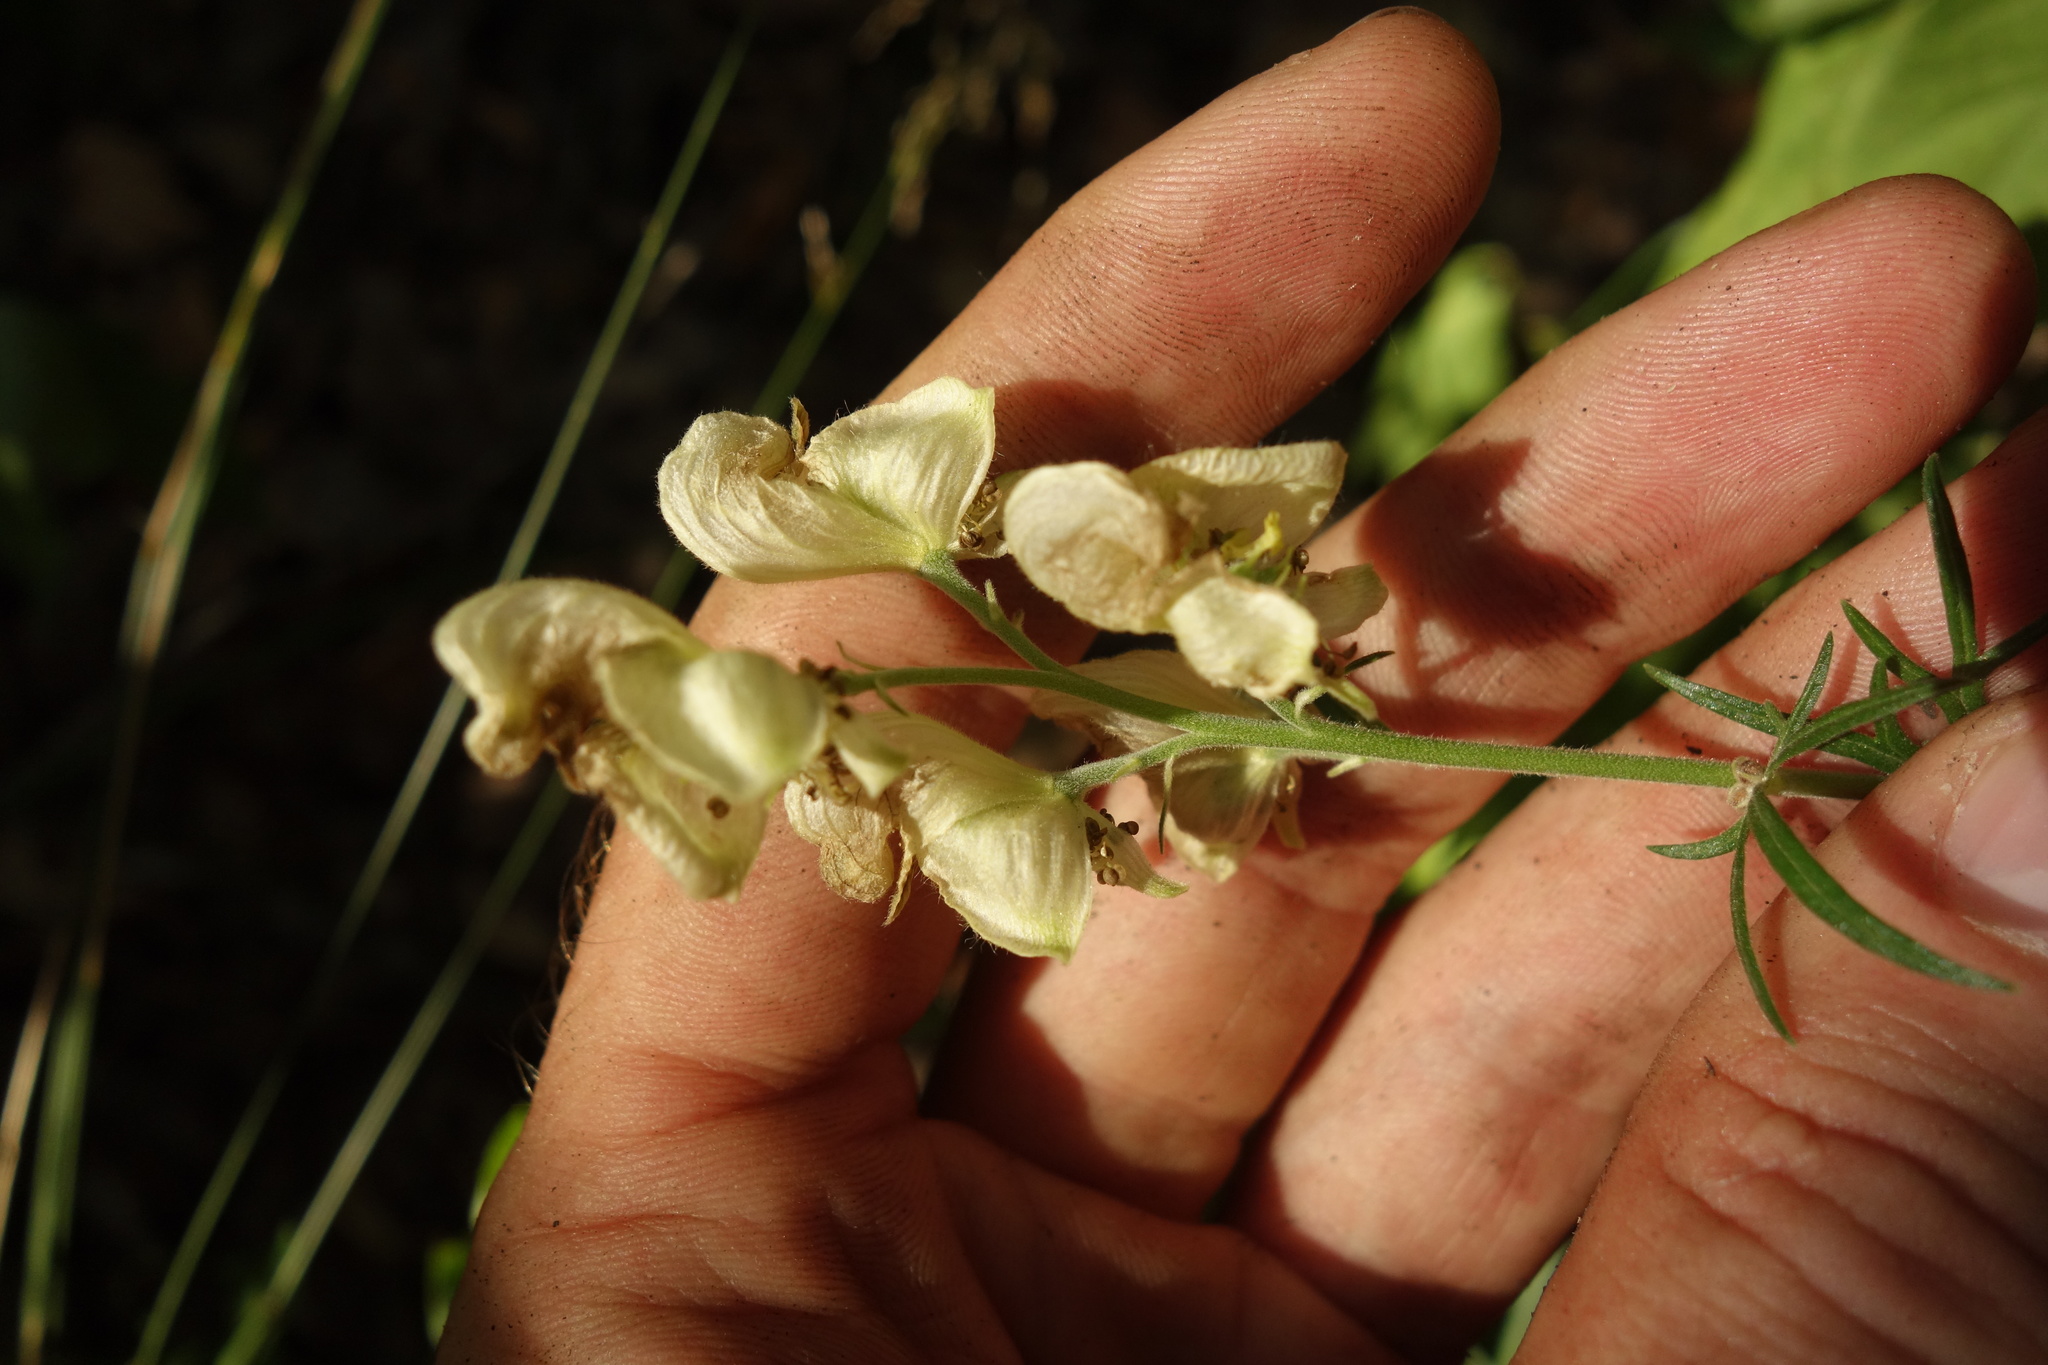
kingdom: Plantae
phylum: Tracheophyta
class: Magnoliopsida
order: Ranunculales
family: Ranunculaceae
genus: Aconitum
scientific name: Aconitum anthora
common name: Yellow monkshood
